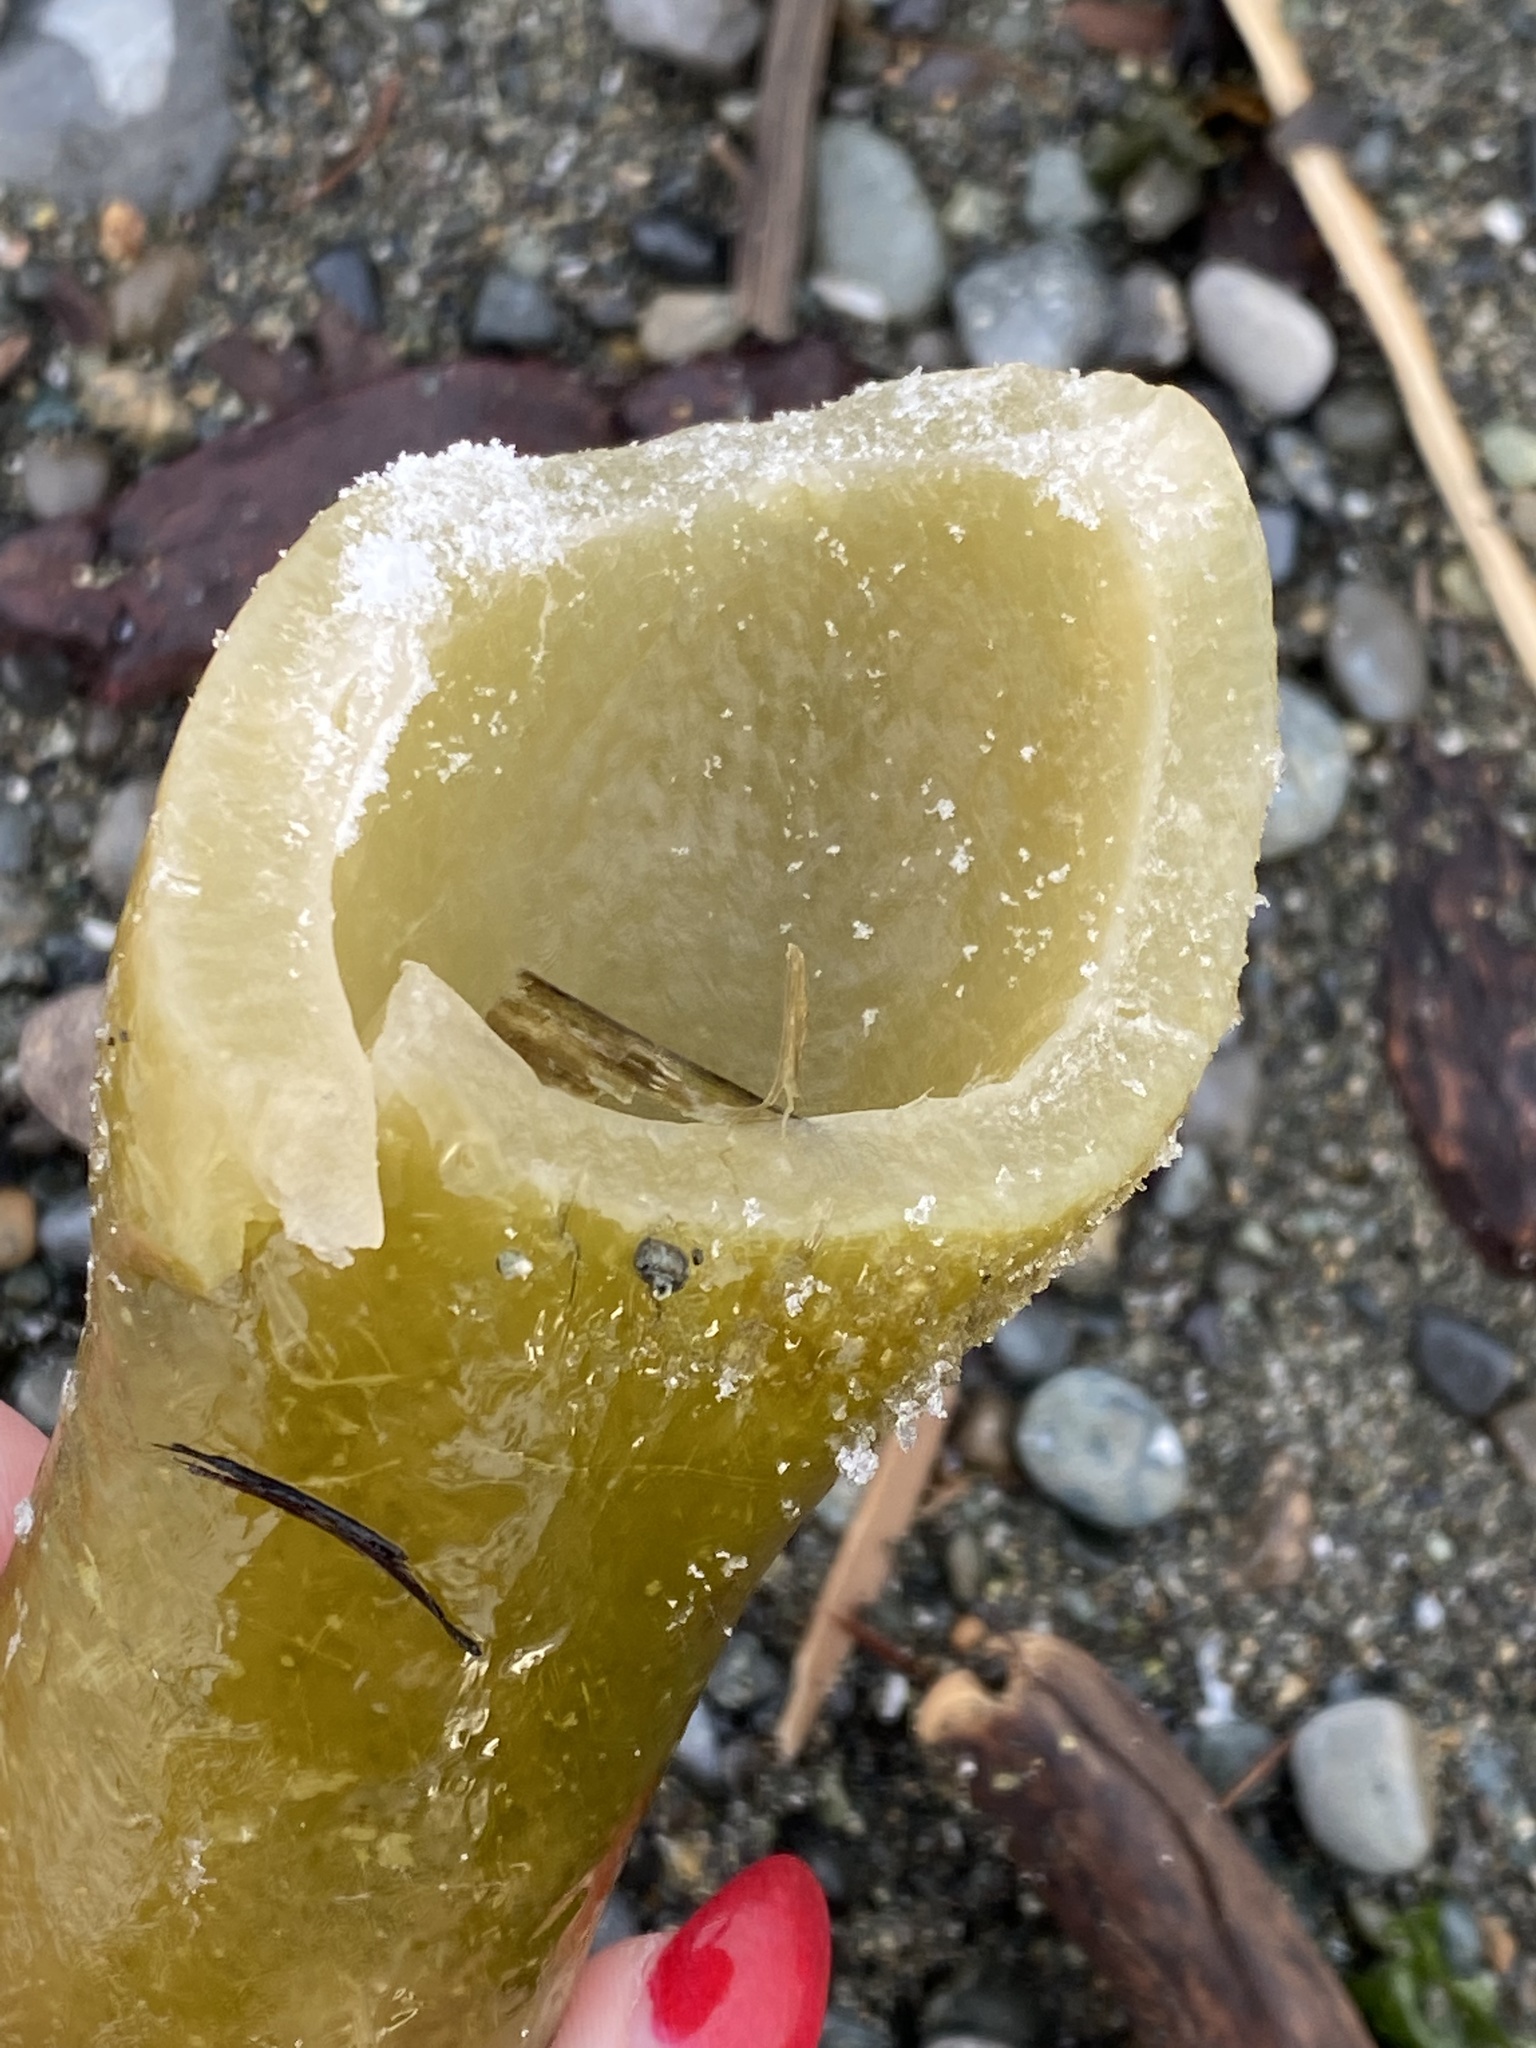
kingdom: Chromista
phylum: Ochrophyta
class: Phaeophyceae
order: Laminariales
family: Laminariaceae
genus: Nereocystis
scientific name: Nereocystis luetkeana
